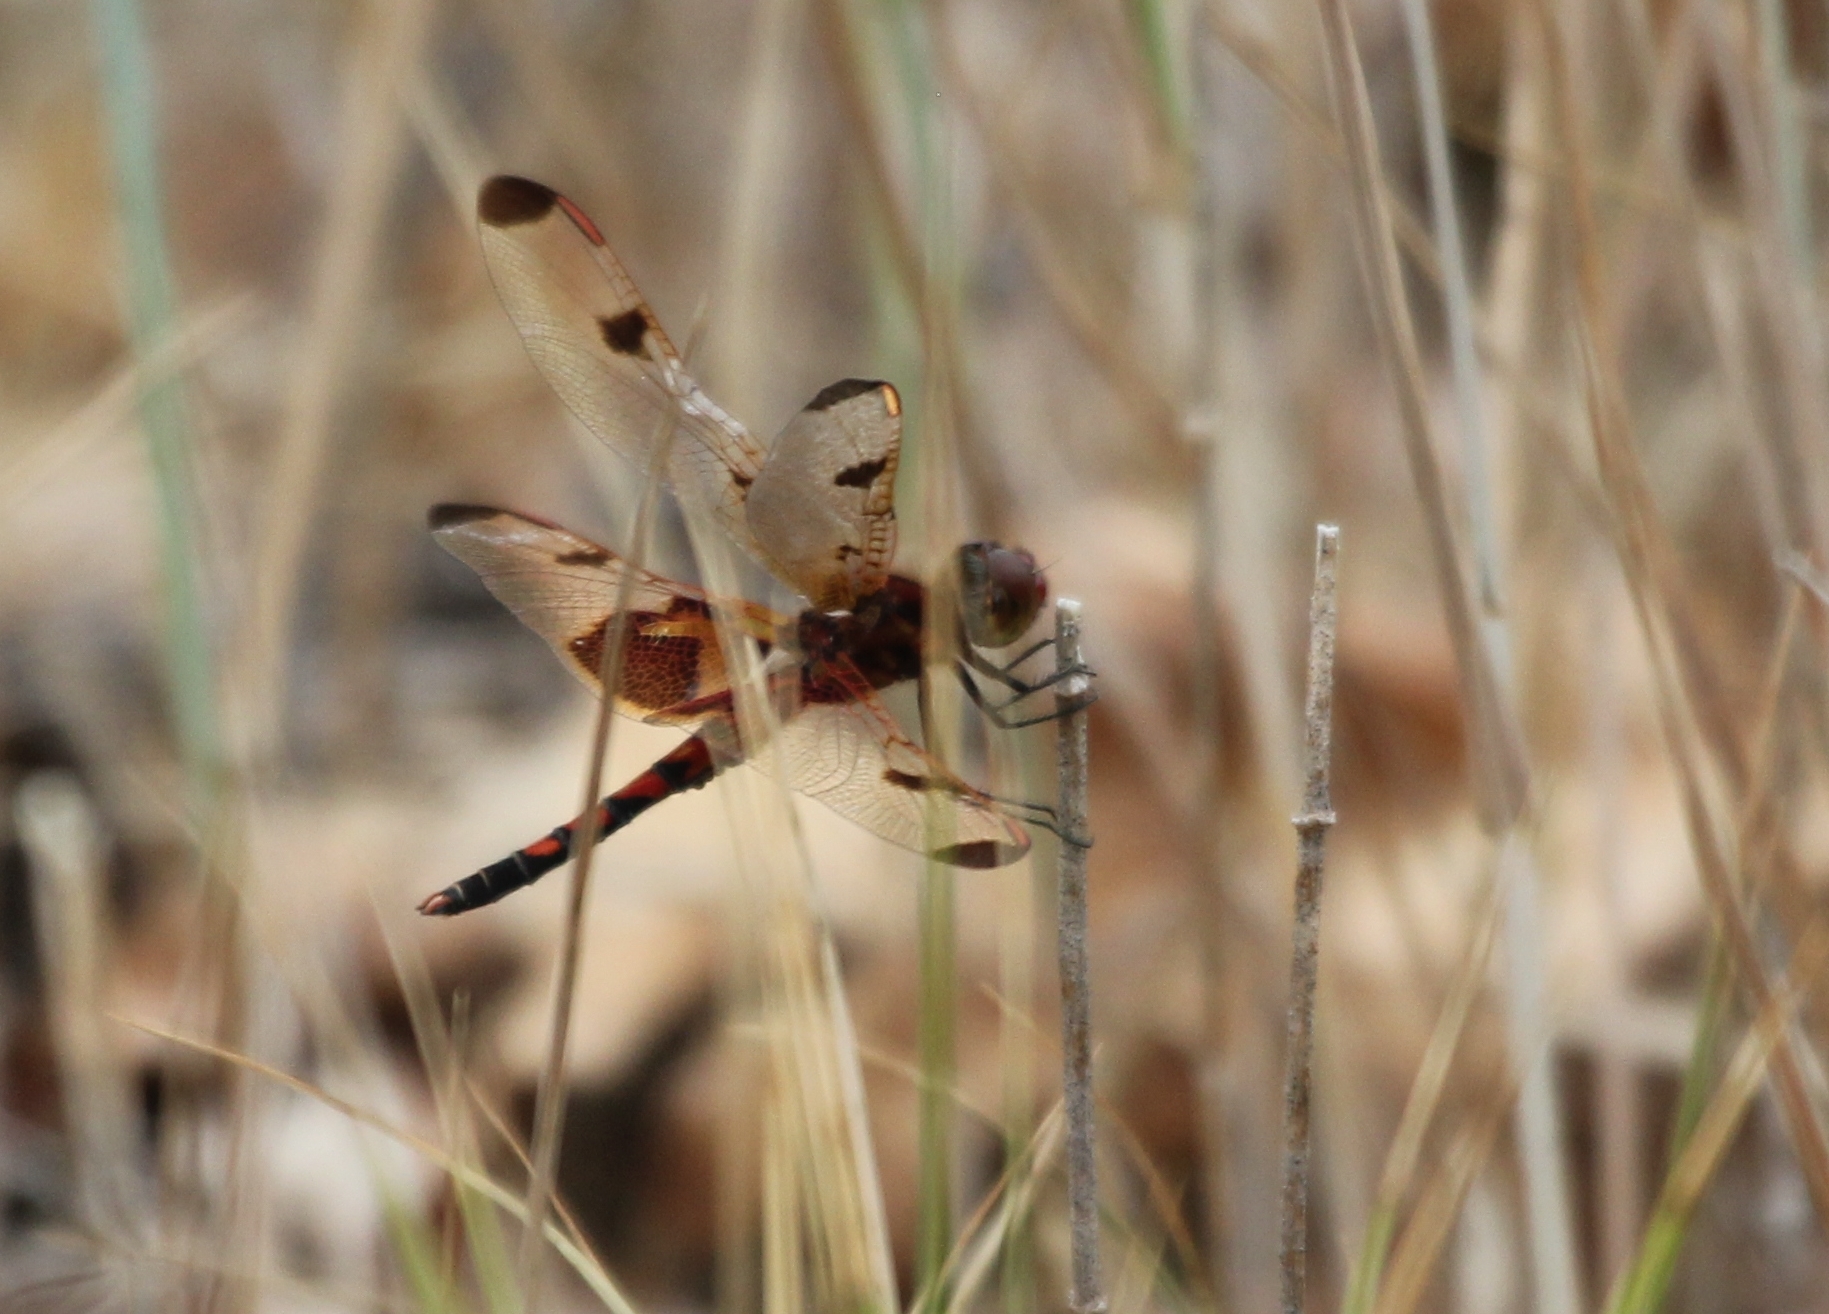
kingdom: Animalia
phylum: Arthropoda
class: Insecta
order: Odonata
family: Libellulidae
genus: Celithemis
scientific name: Celithemis elisa
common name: Calico pennant
